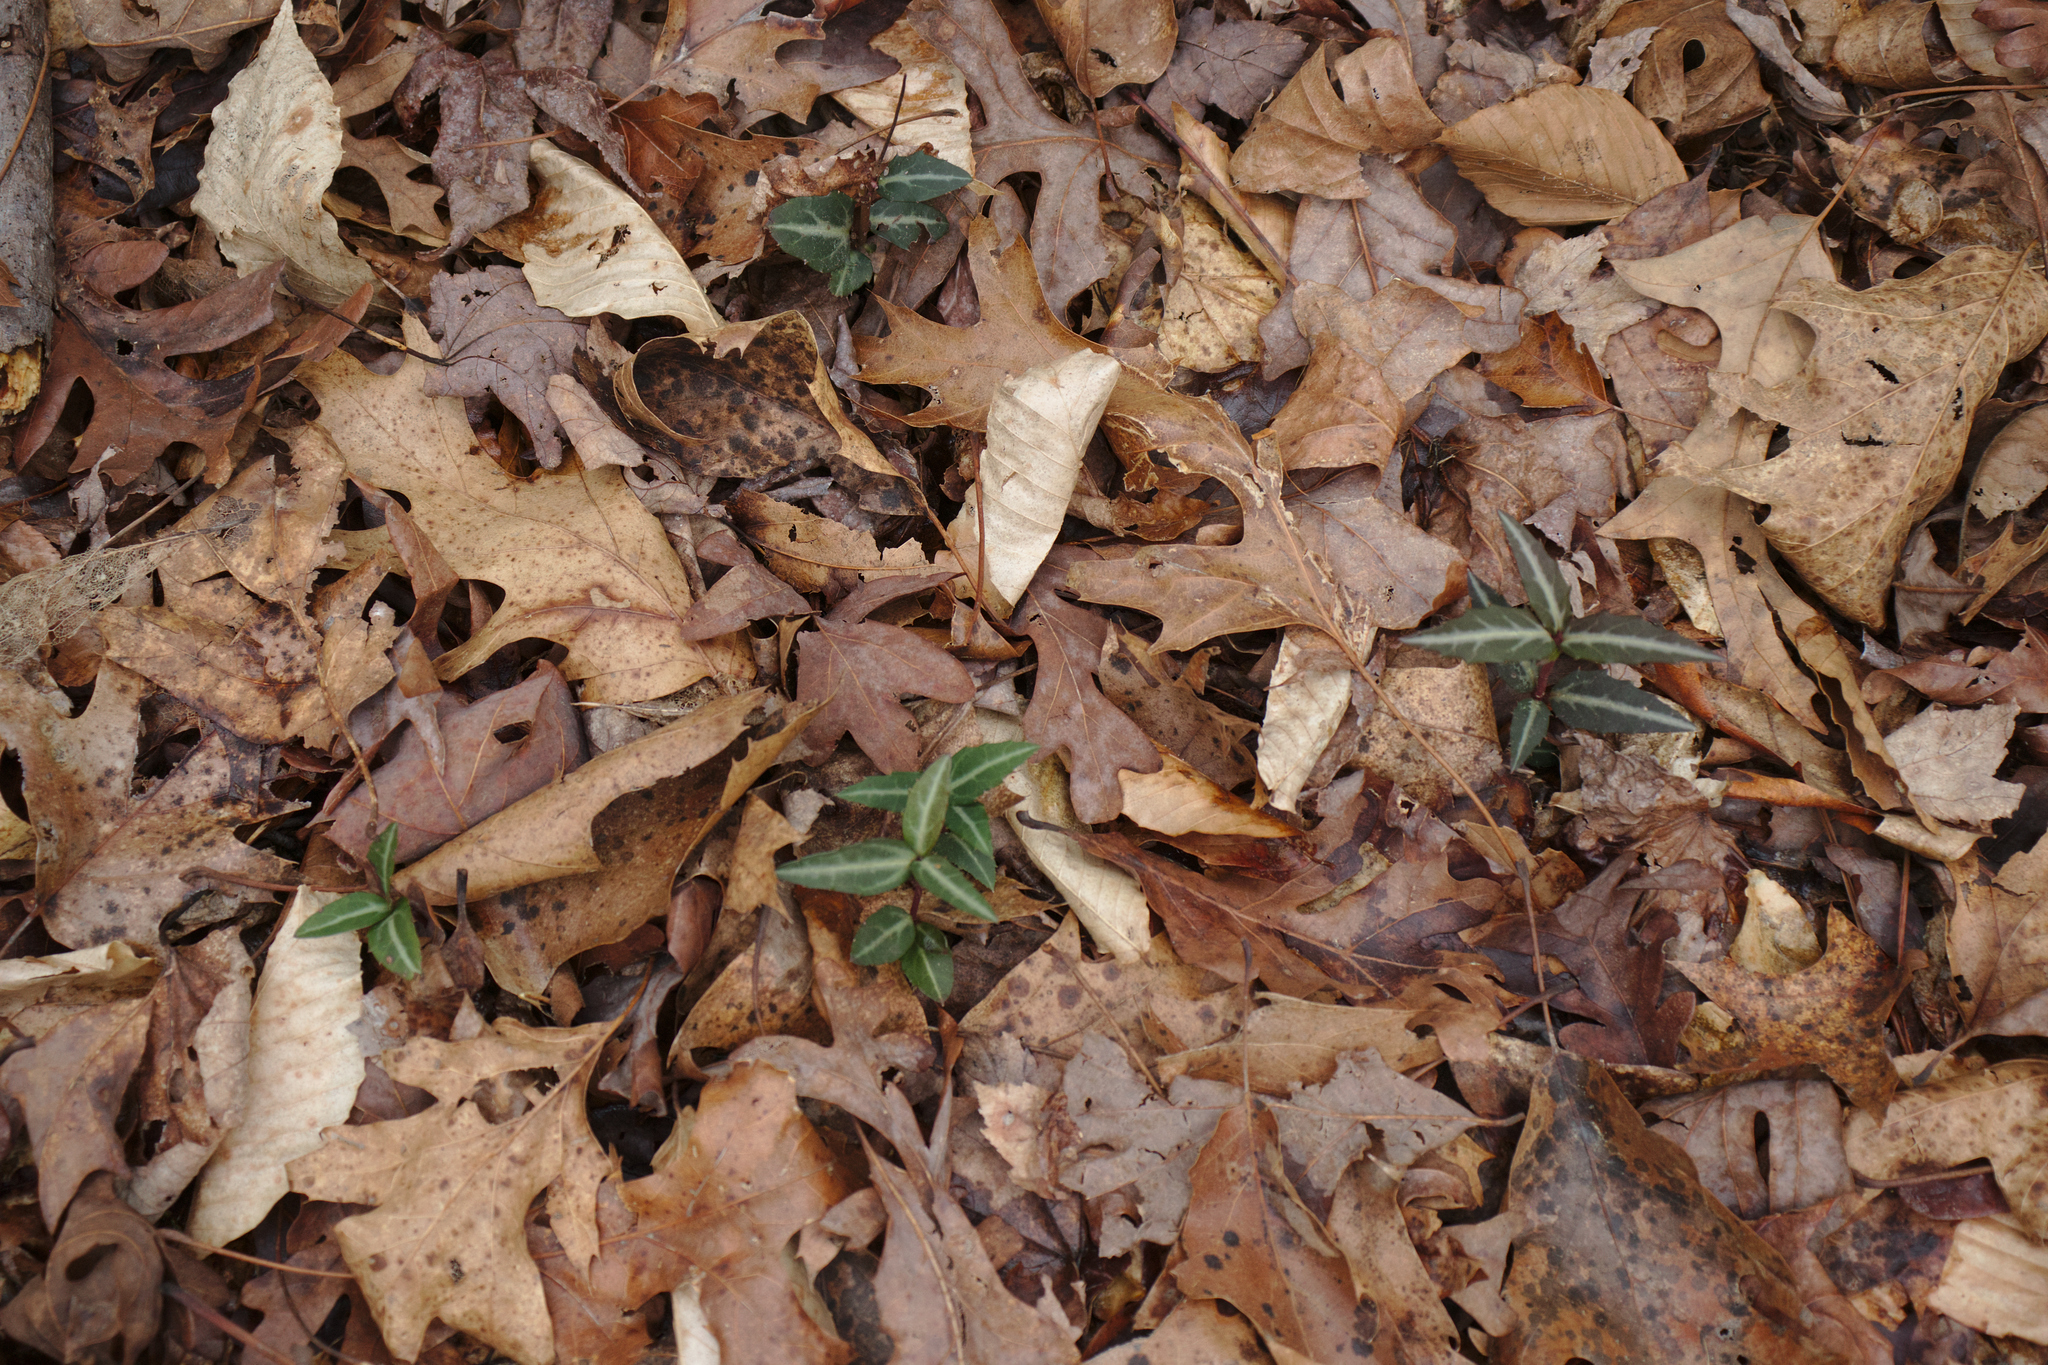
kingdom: Plantae
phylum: Tracheophyta
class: Magnoliopsida
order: Ericales
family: Ericaceae
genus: Chimaphila
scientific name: Chimaphila maculata
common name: Spotted pipsissewa
